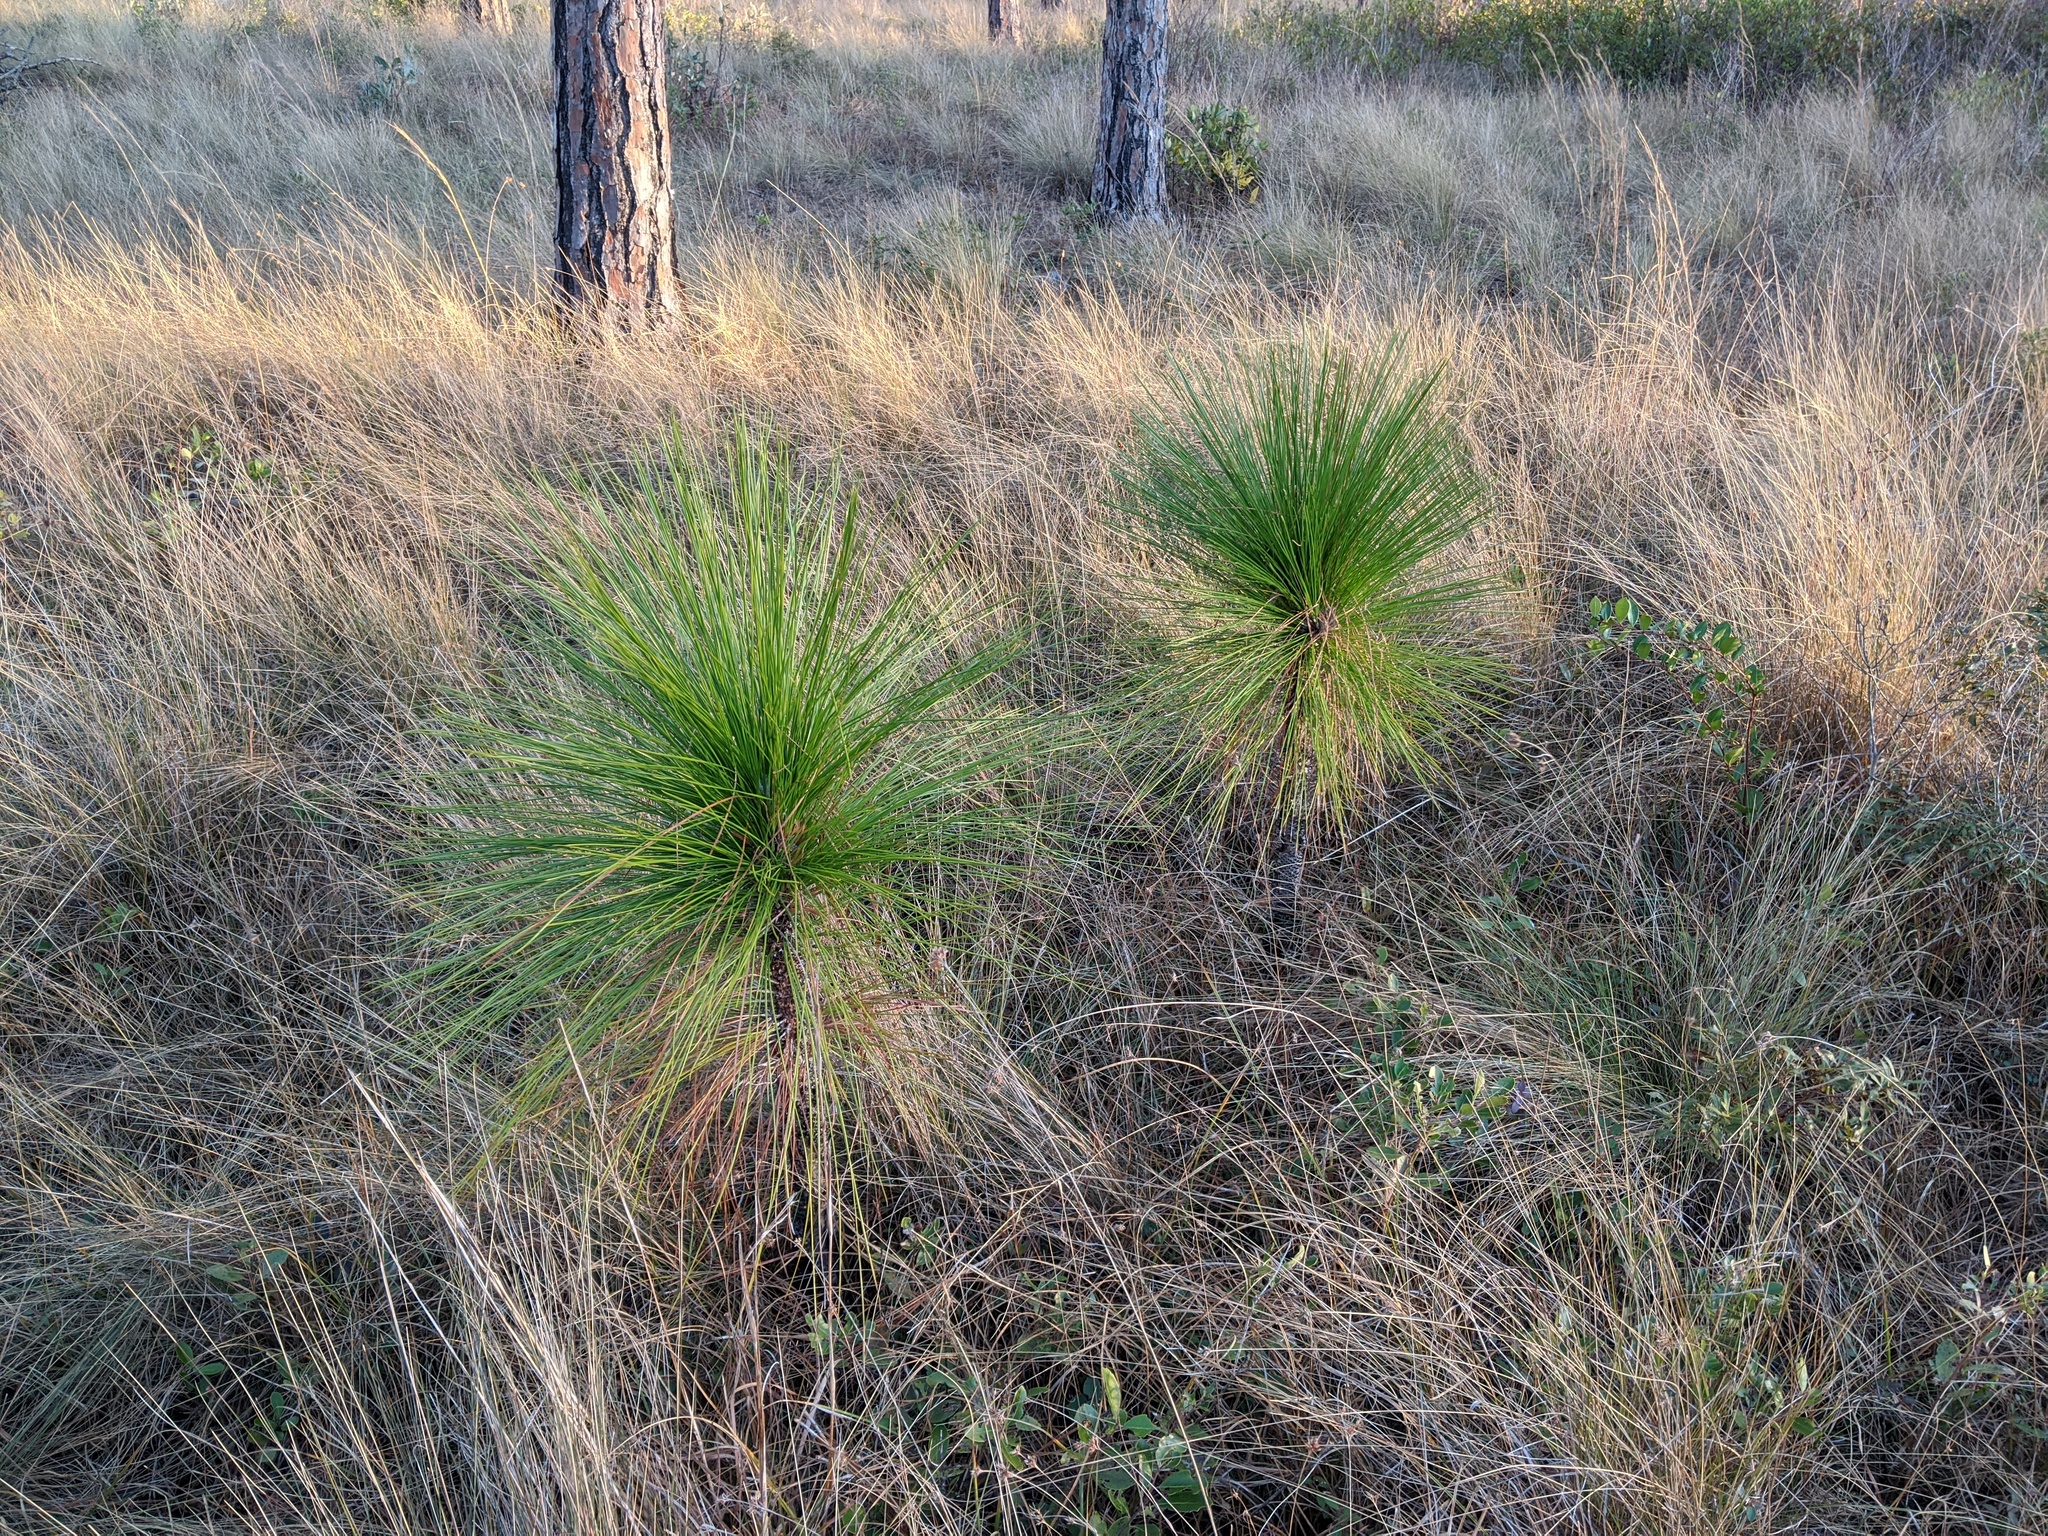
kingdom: Plantae
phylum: Tracheophyta
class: Pinopsida
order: Pinales
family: Pinaceae
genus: Pinus
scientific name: Pinus palustris
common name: Longleaf pine
